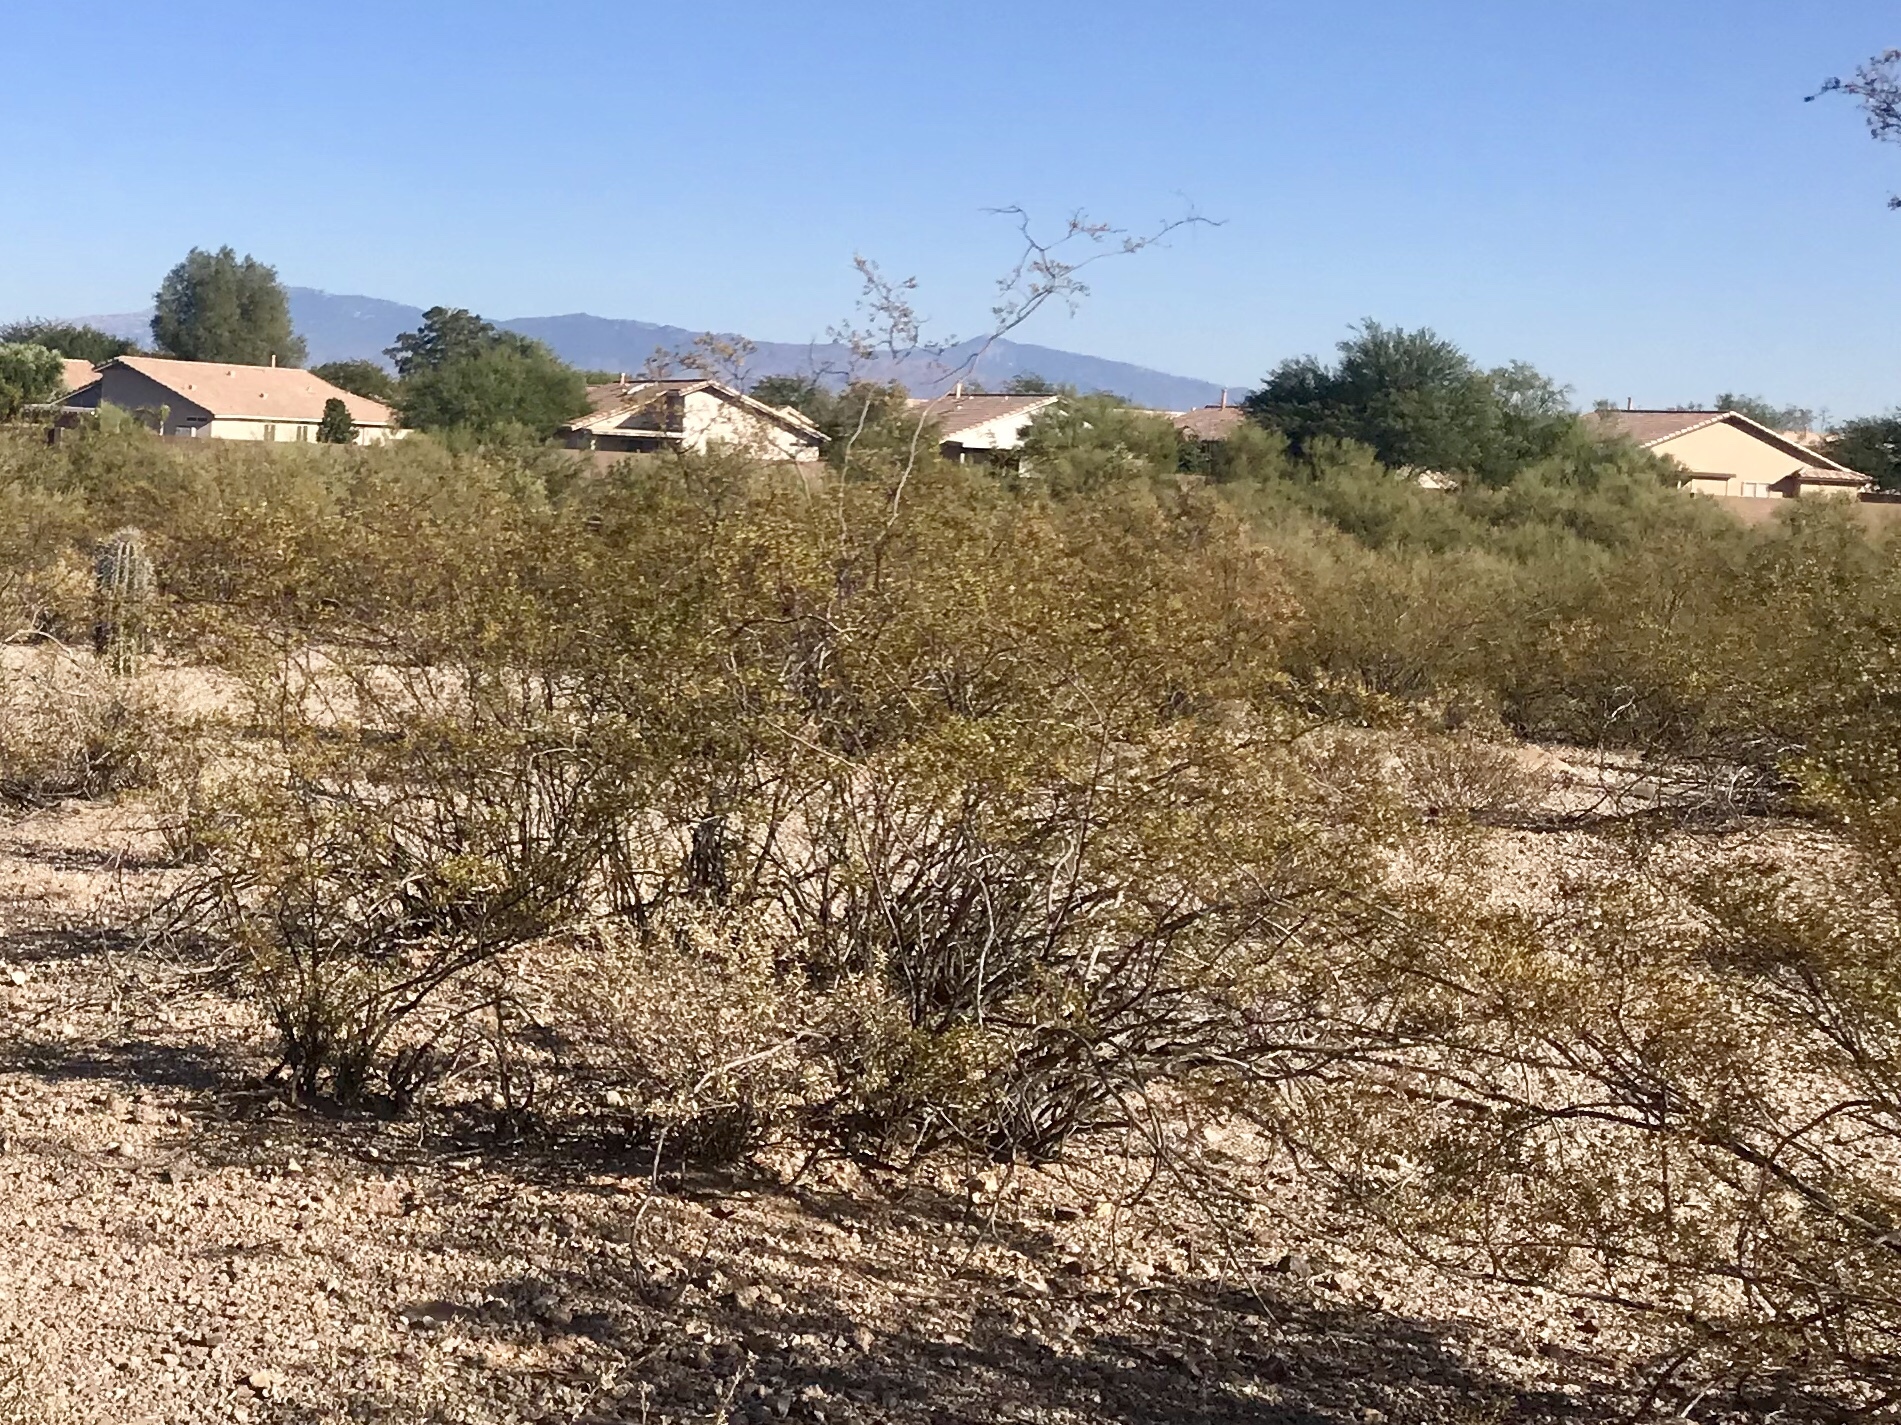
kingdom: Plantae
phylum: Tracheophyta
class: Magnoliopsida
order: Zygophyllales
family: Zygophyllaceae
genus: Larrea
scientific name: Larrea tridentata
